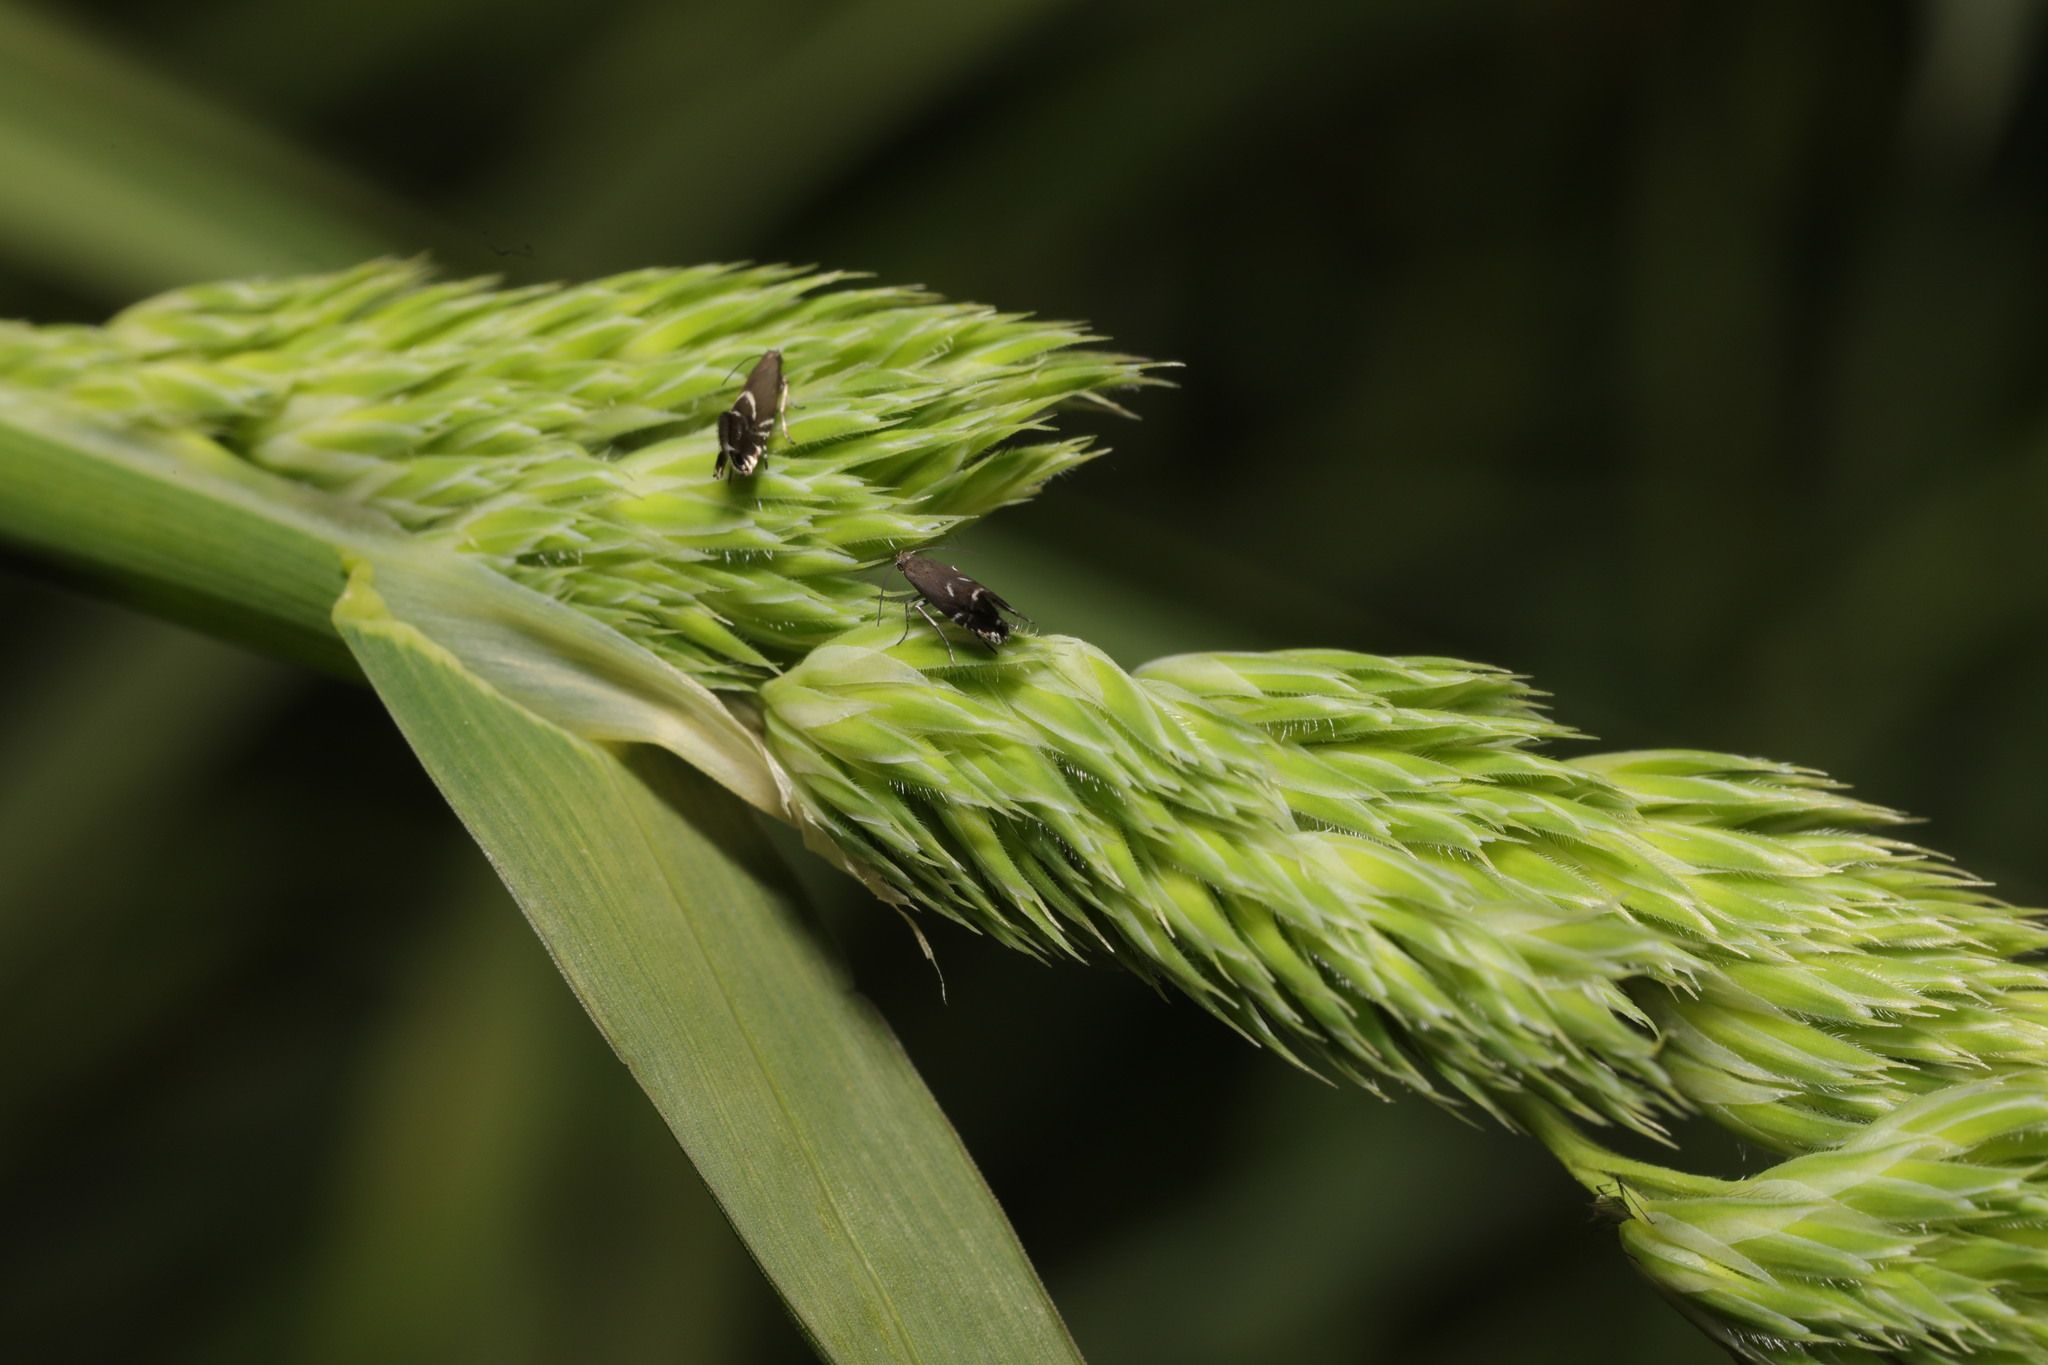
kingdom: Animalia
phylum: Arthropoda
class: Insecta
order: Lepidoptera
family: Glyphipterigidae
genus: Glyphipterix
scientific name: Glyphipterix simpliciella
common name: Cocksfoot moth
